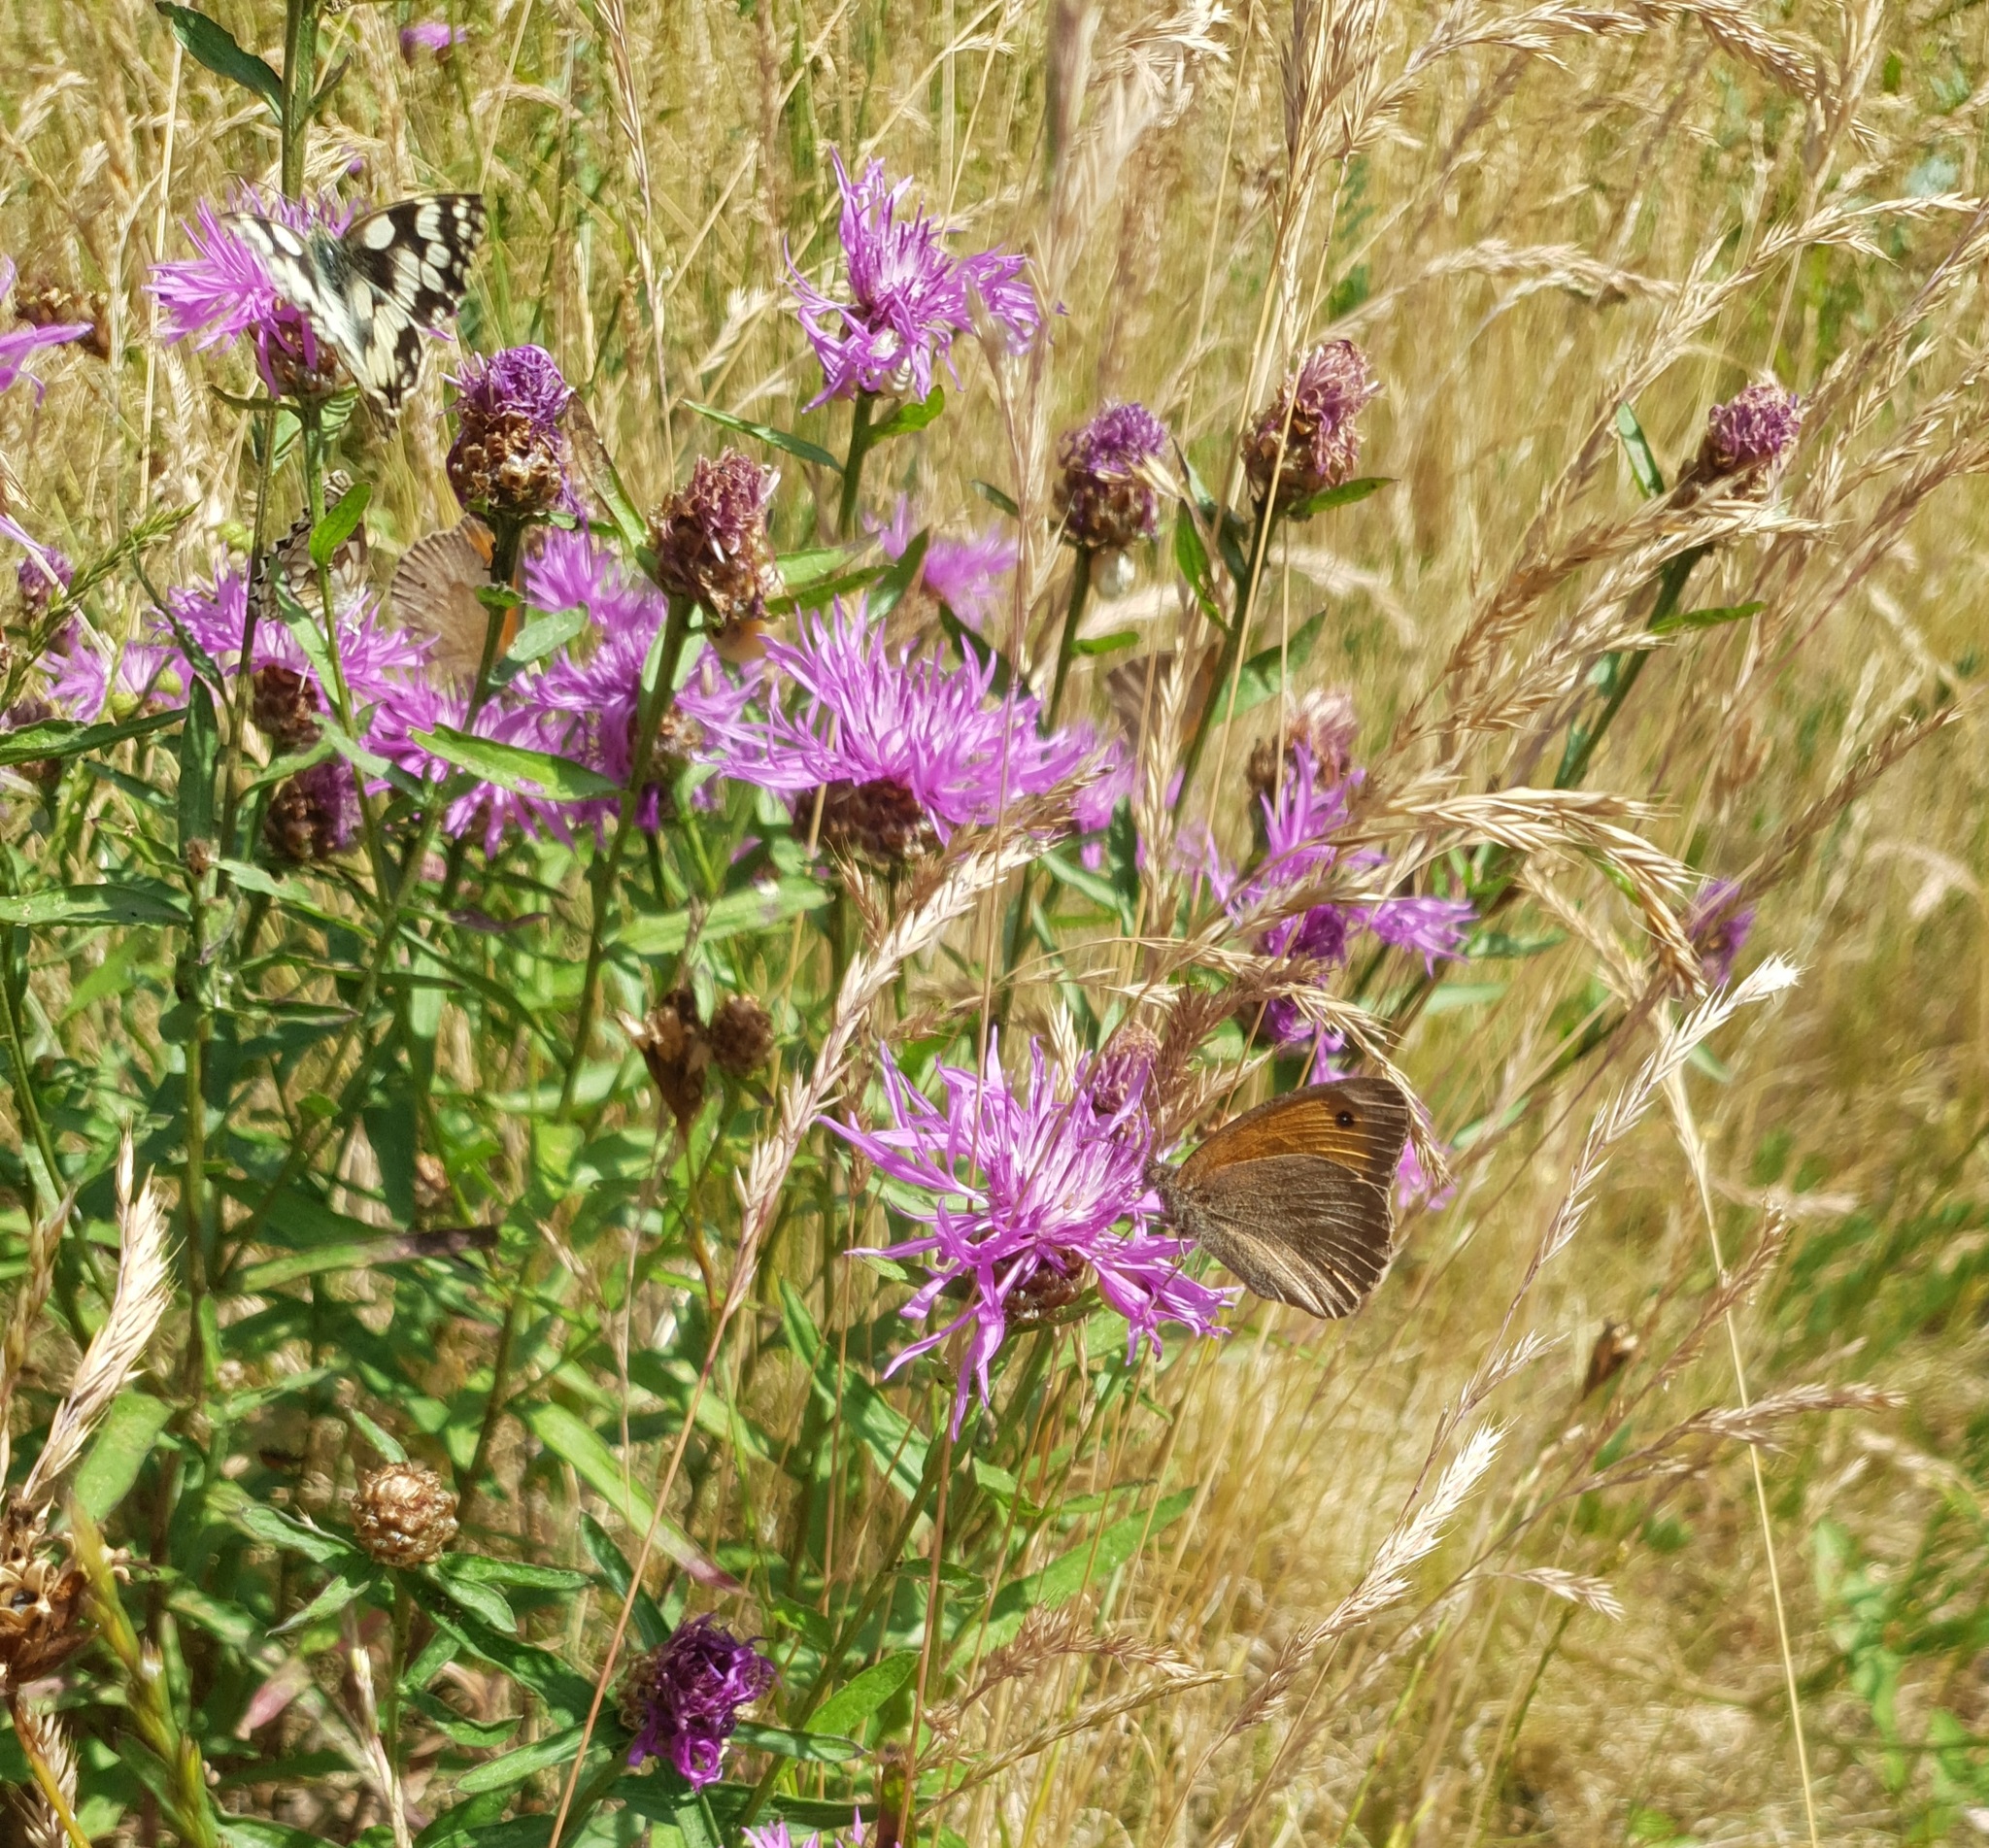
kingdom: Animalia
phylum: Arthropoda
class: Insecta
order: Lepidoptera
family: Nymphalidae
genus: Maniola
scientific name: Maniola jurtina
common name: Meadow brown
